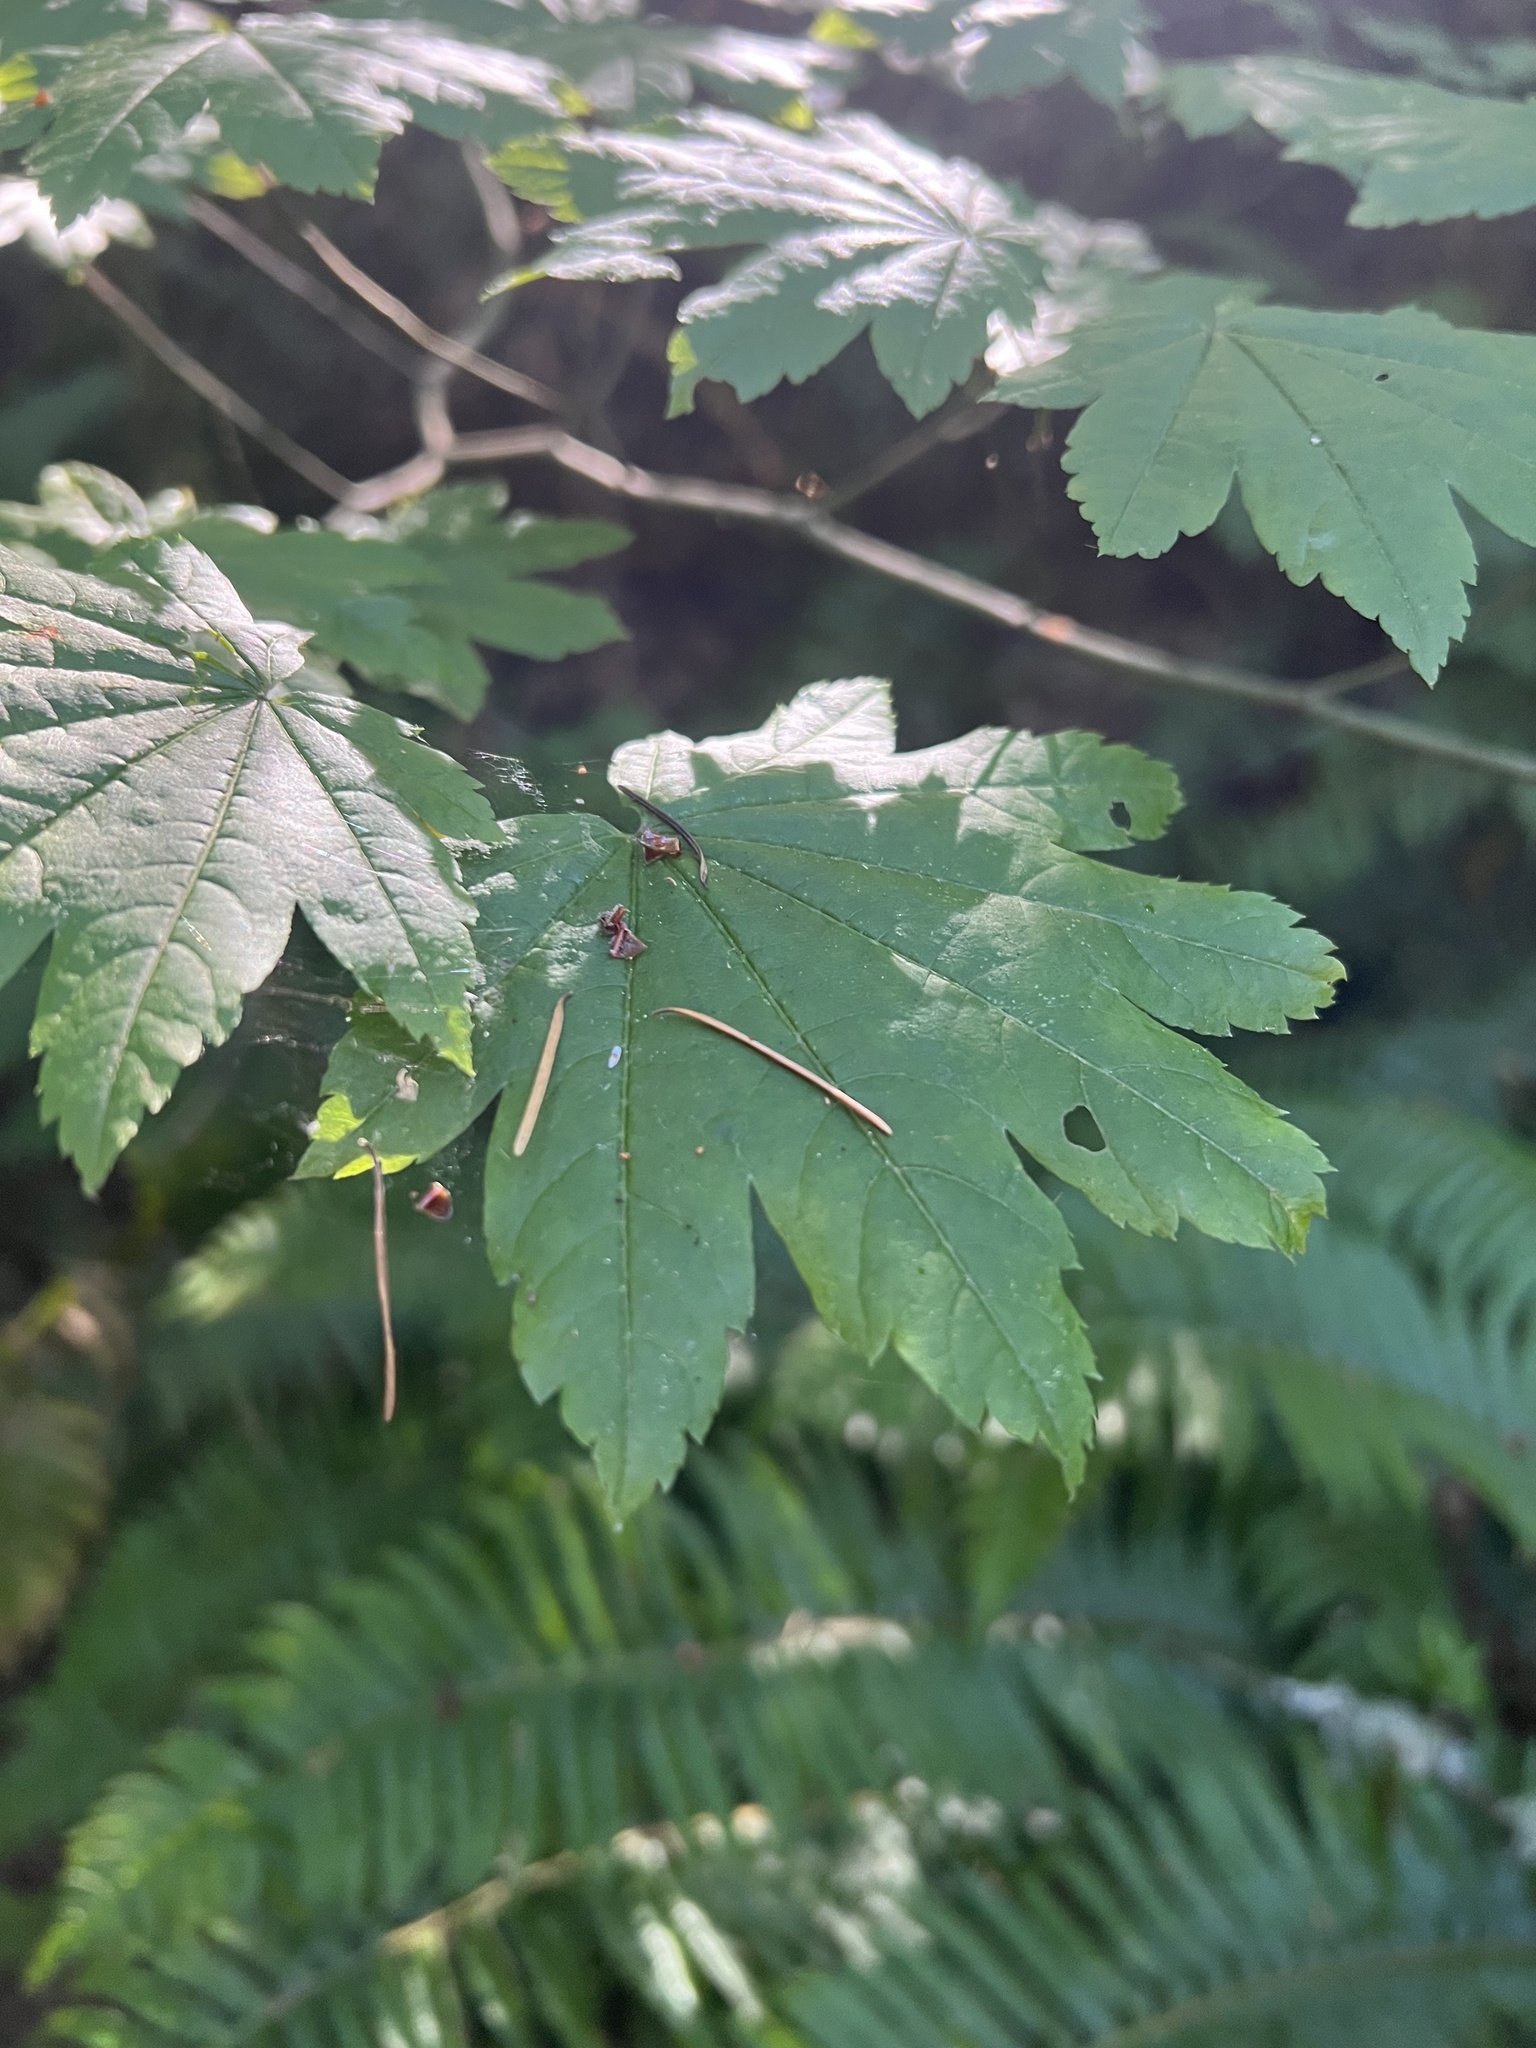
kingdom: Plantae
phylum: Tracheophyta
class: Magnoliopsida
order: Sapindales
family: Sapindaceae
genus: Acer
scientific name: Acer circinatum
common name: Vine maple
